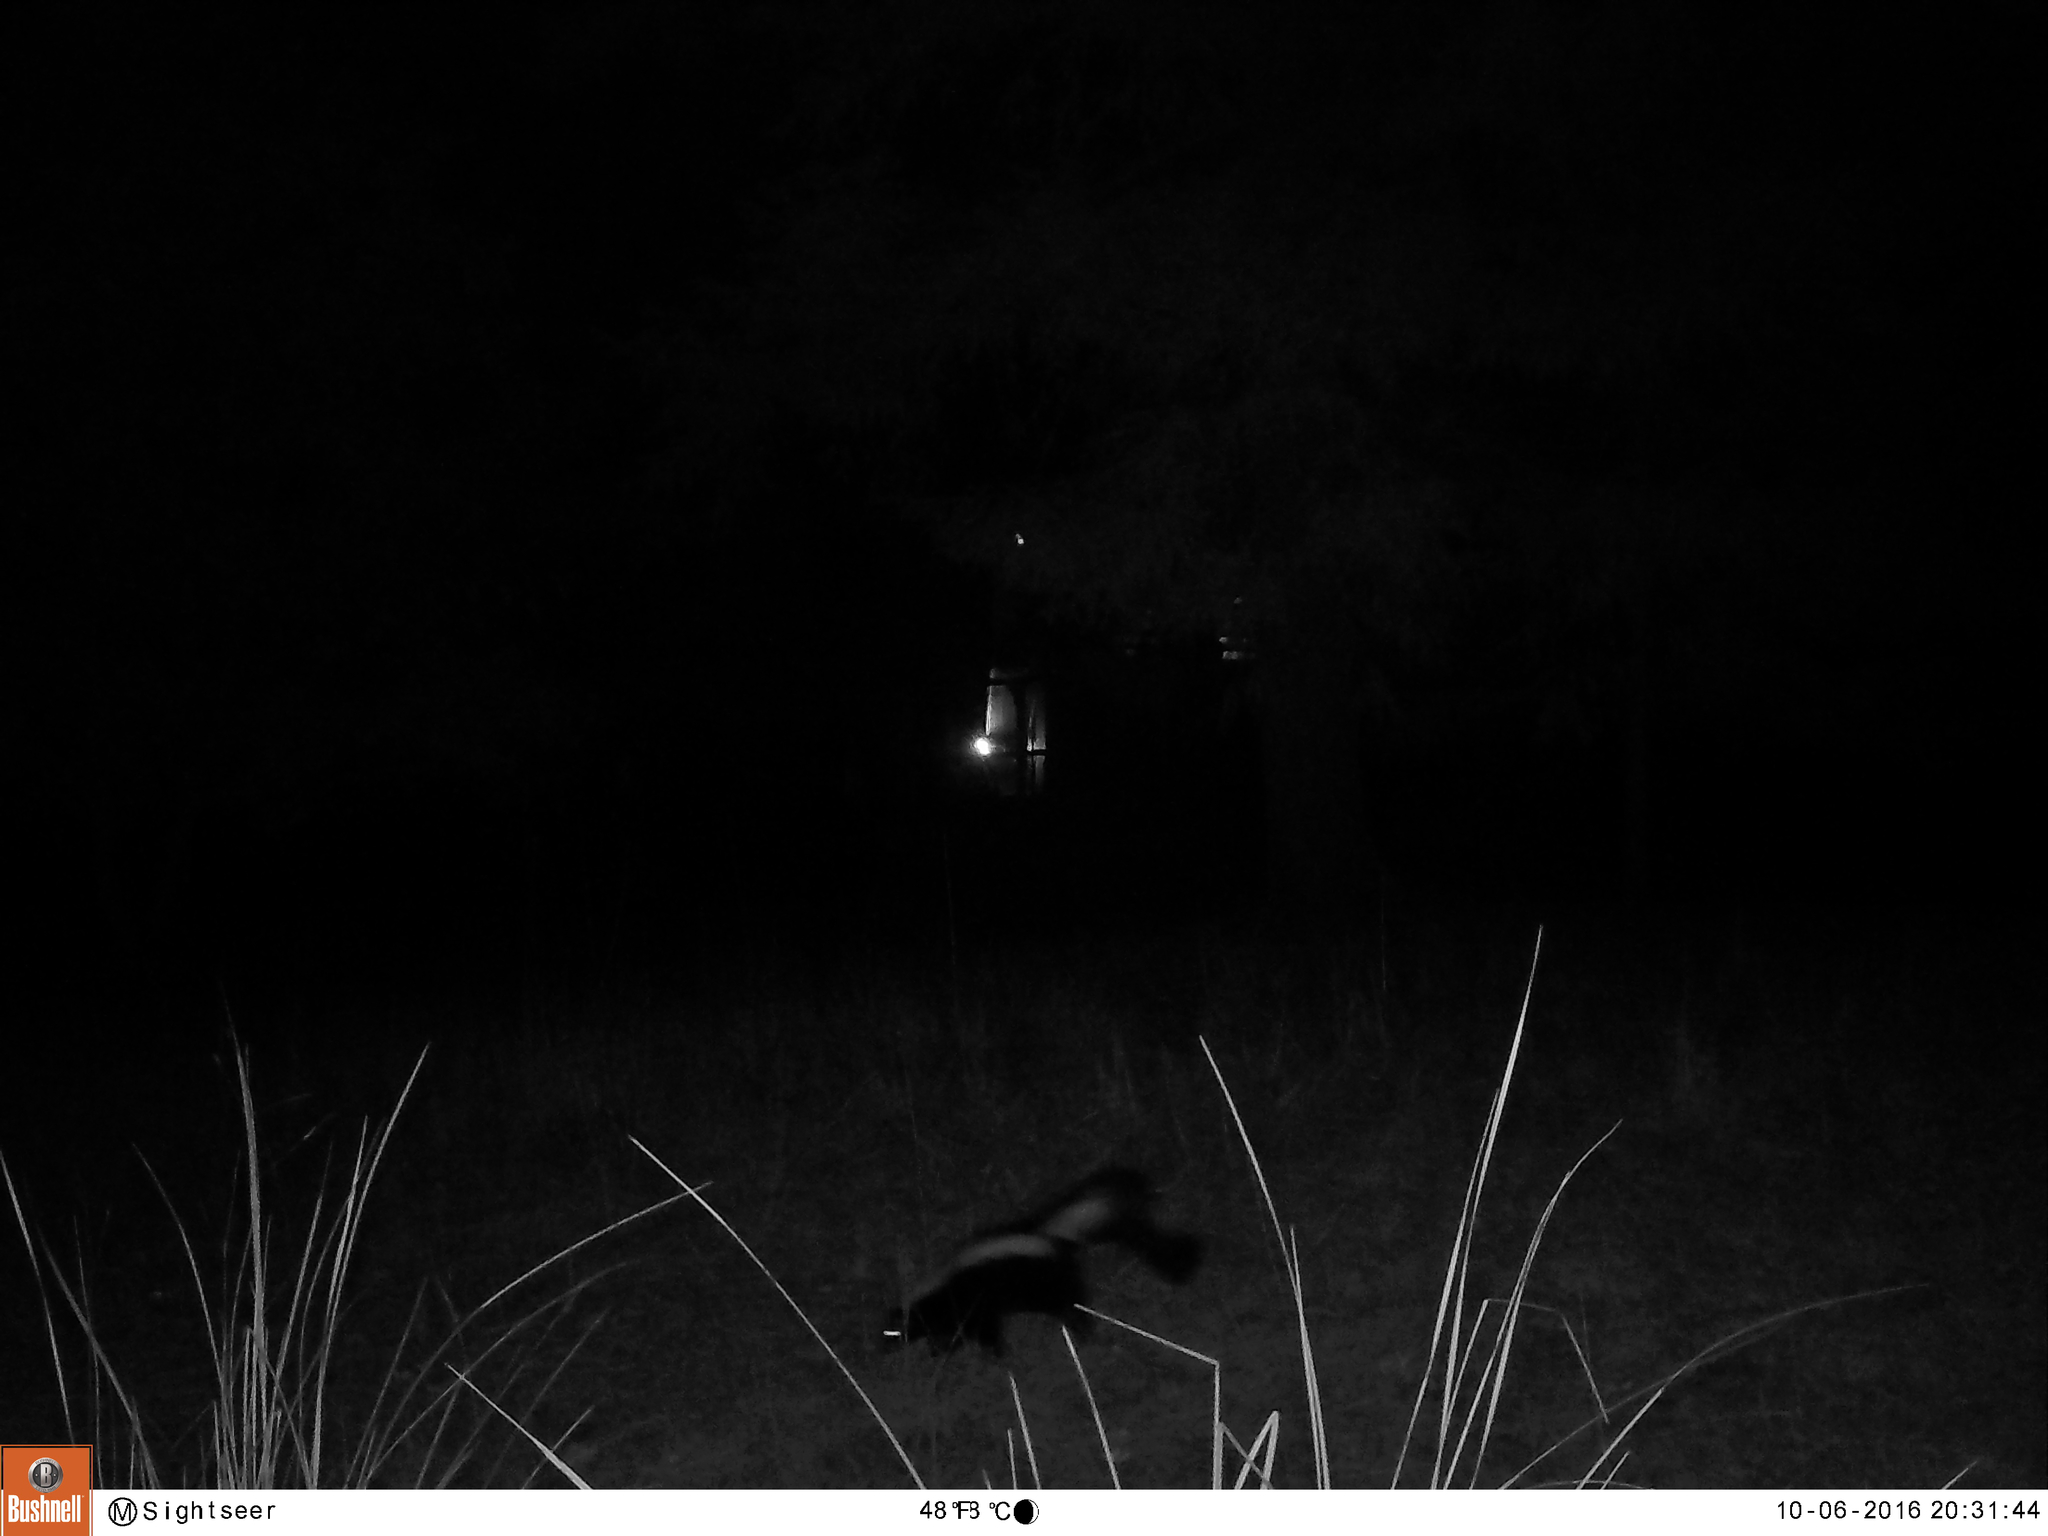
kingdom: Animalia
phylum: Chordata
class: Mammalia
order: Carnivora
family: Mephitidae
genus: Mephitis
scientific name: Mephitis mephitis
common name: Striped skunk
